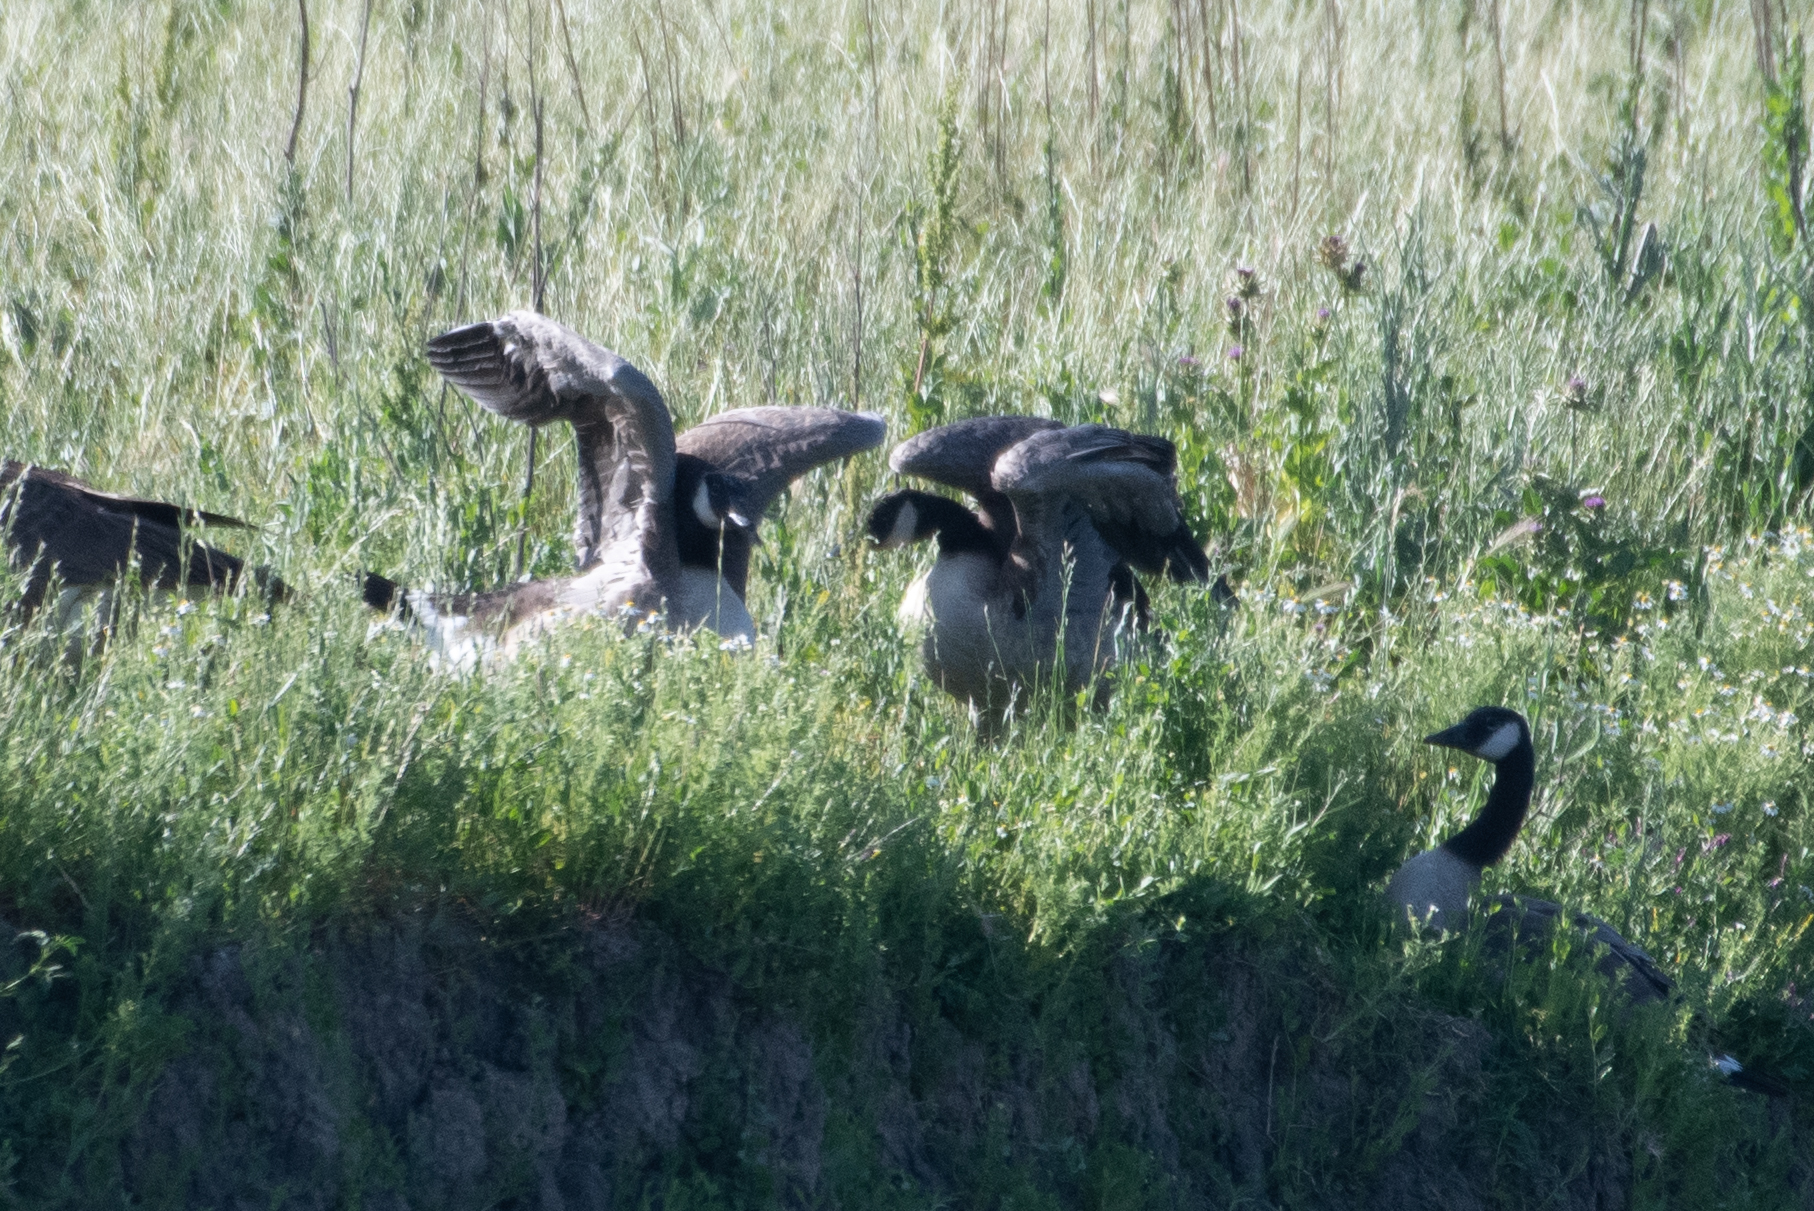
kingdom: Animalia
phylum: Chordata
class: Aves
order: Anseriformes
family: Anatidae
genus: Branta
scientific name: Branta canadensis
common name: Canada goose
